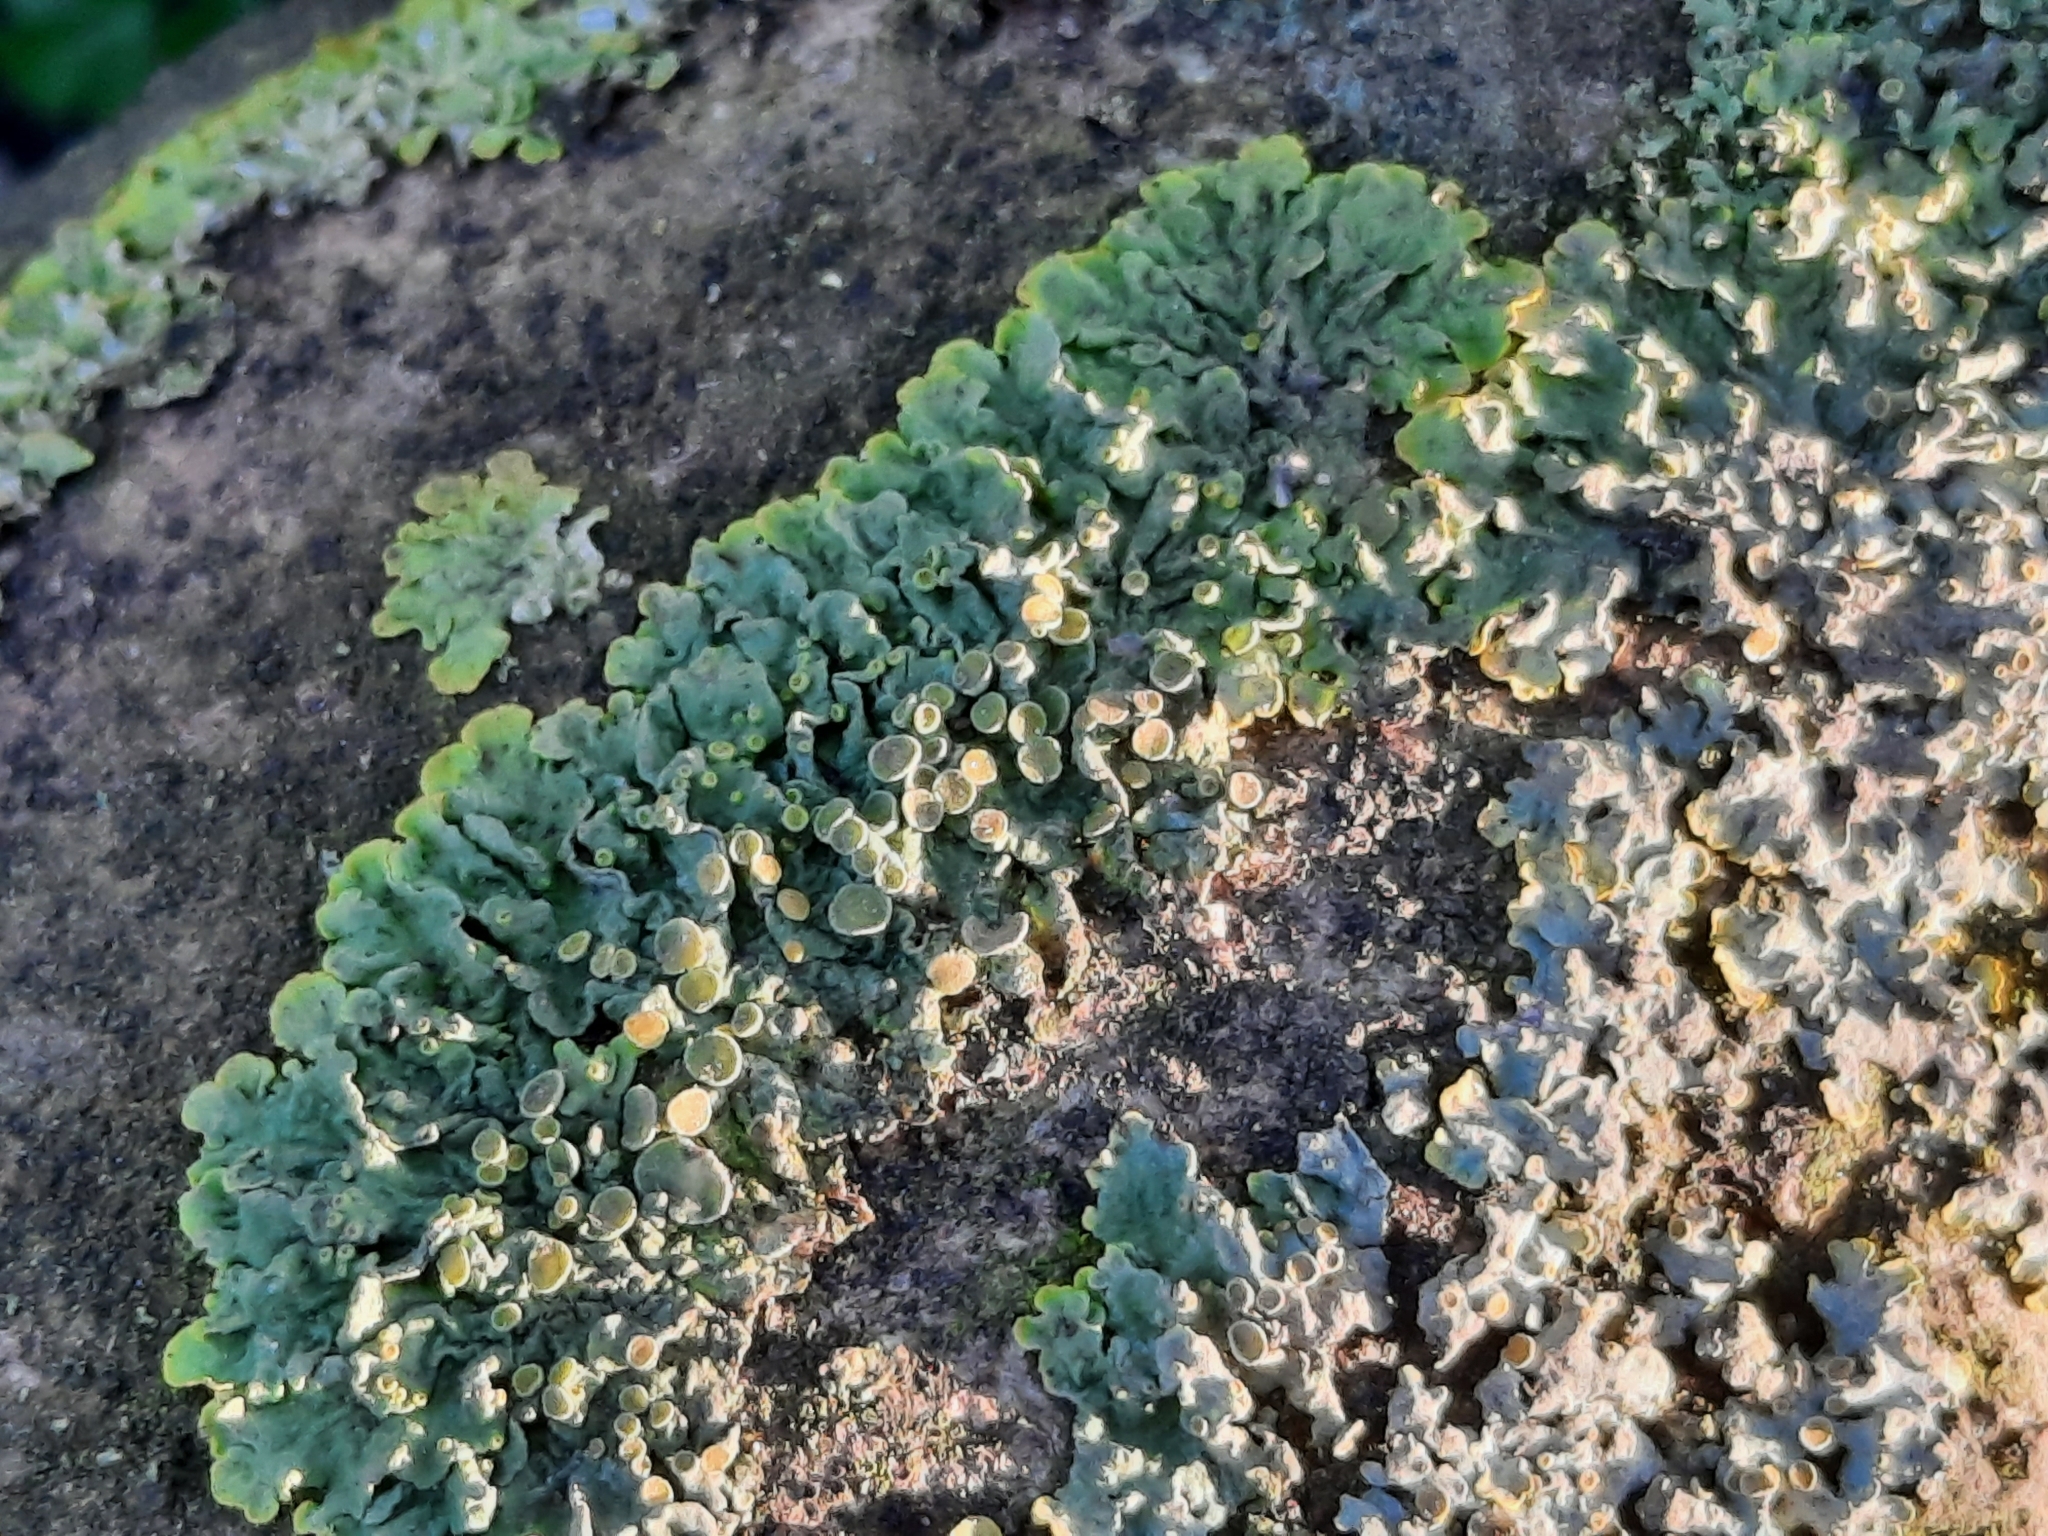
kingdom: Fungi
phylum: Ascomycota
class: Lecanoromycetes
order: Teloschistales
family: Teloschistaceae
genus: Xanthoria
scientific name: Xanthoria parietina
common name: Common orange lichen
